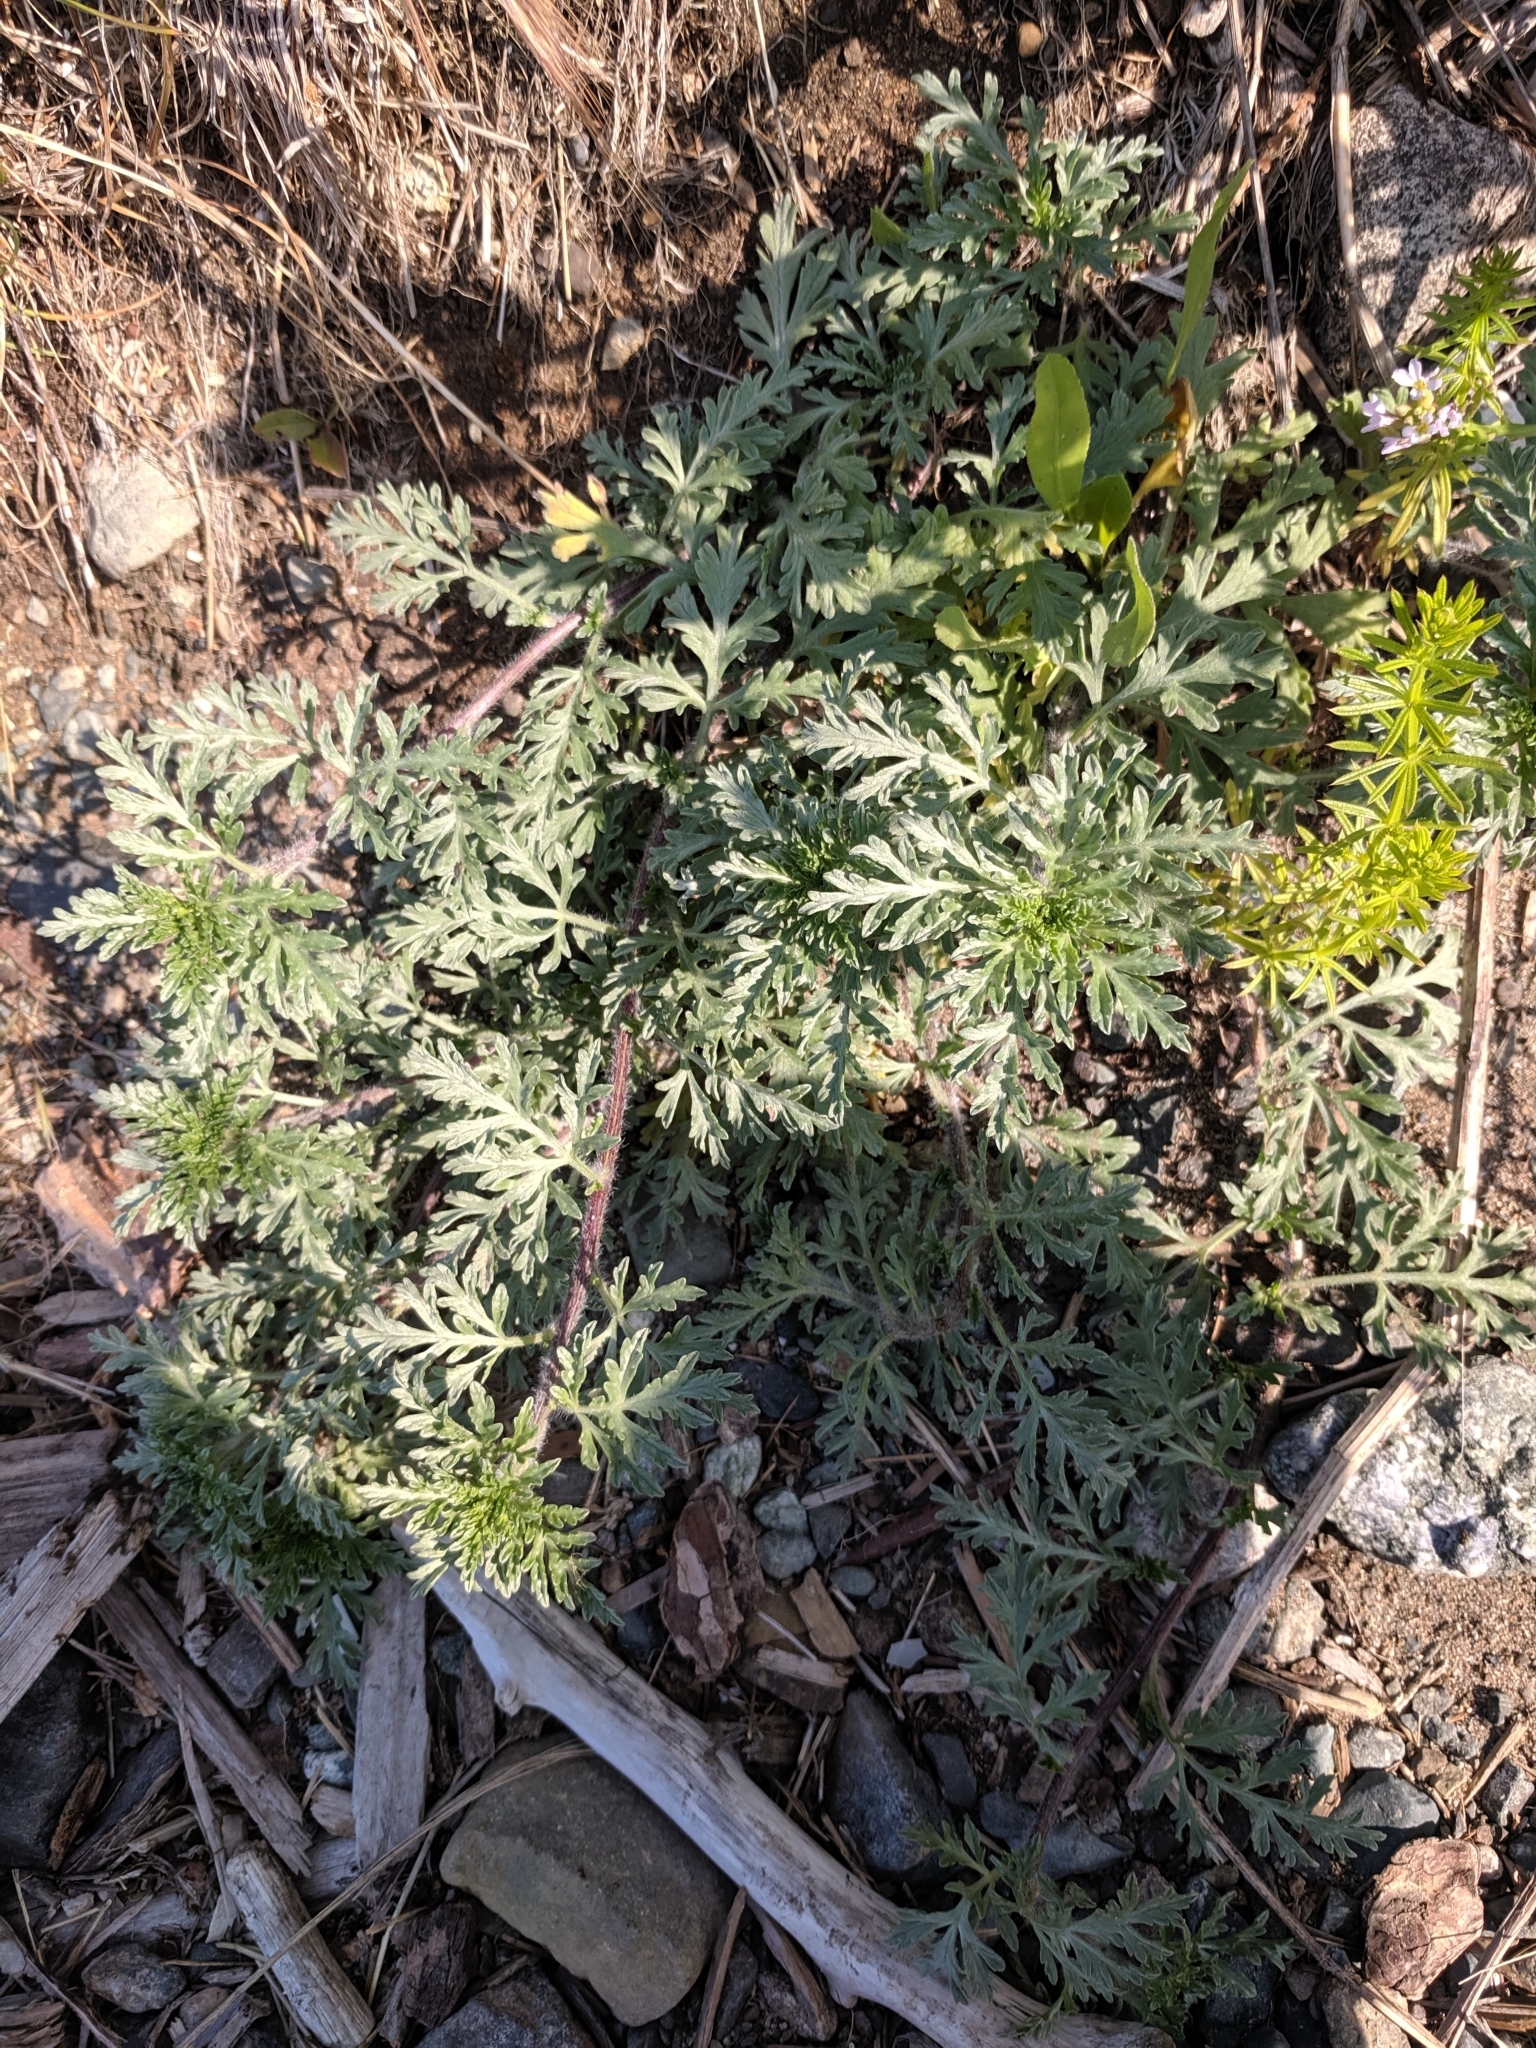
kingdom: Plantae
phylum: Tracheophyta
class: Magnoliopsida
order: Asterales
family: Asteraceae
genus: Ambrosia
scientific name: Ambrosia chamissonis
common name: Beachbur
